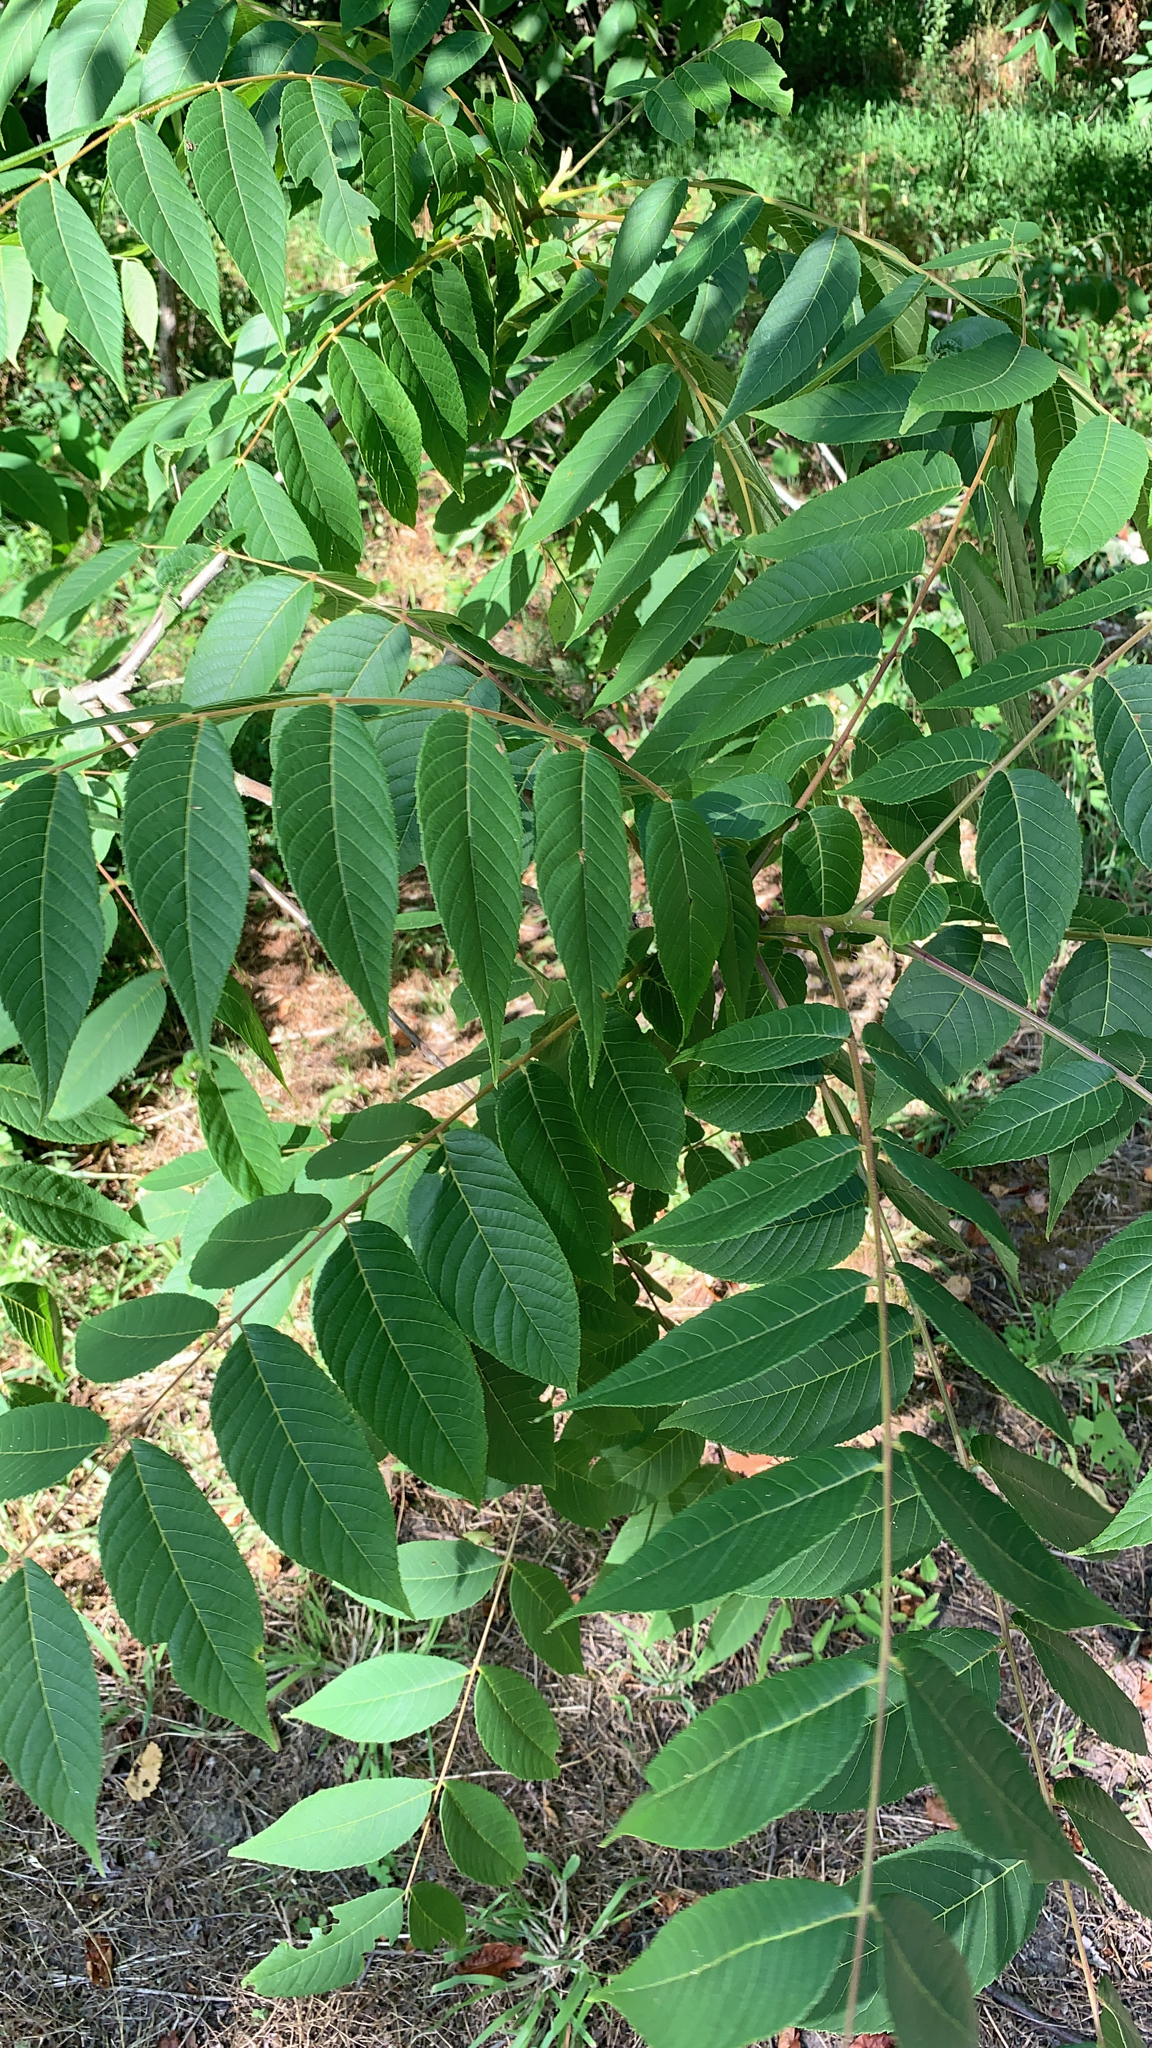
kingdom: Plantae
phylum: Tracheophyta
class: Magnoliopsida
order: Fagales
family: Juglandaceae
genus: Juglans
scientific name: Juglans nigra
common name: Black walnut
